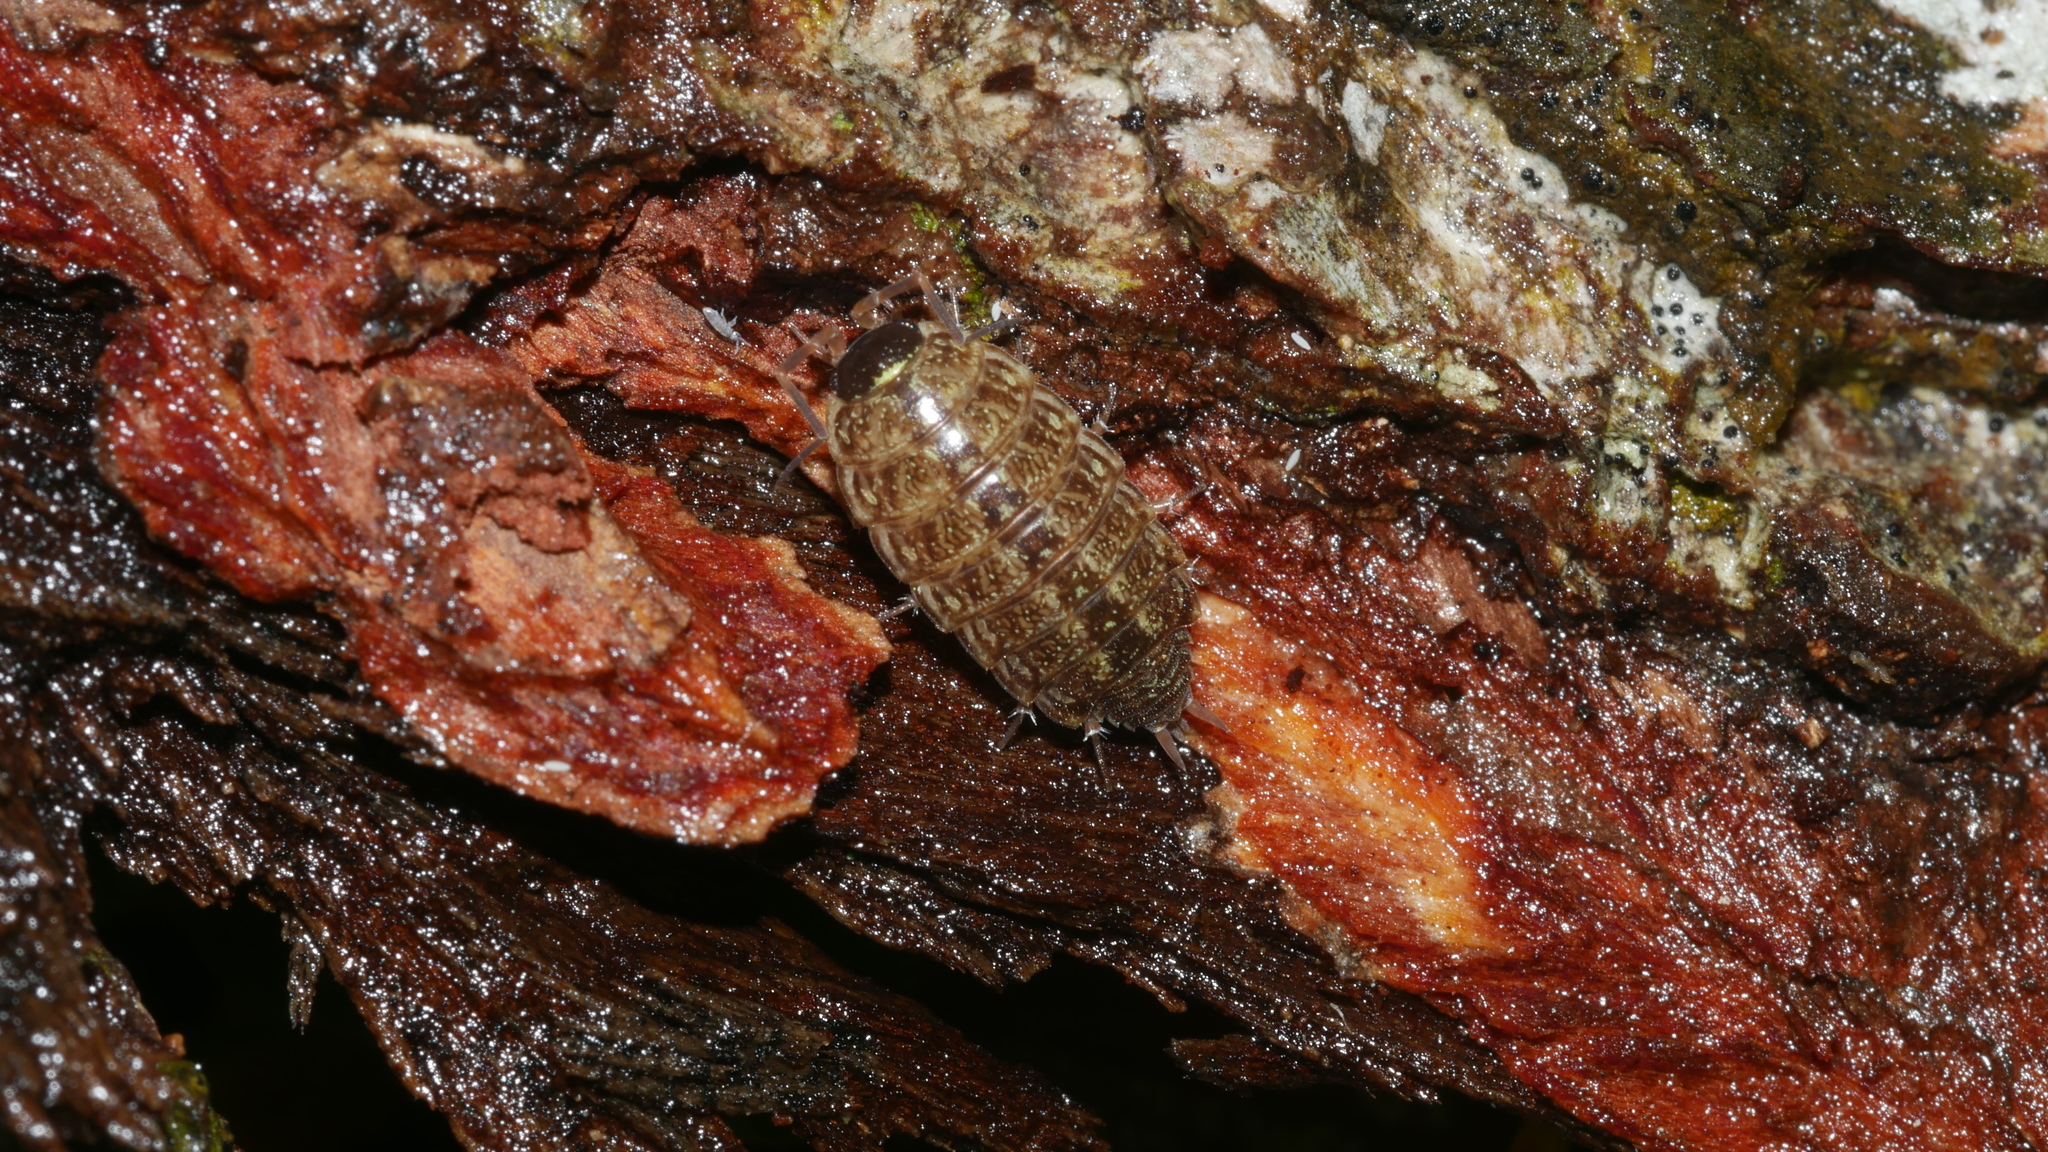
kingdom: Animalia
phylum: Arthropoda
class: Malacostraca
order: Isopoda
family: Philosciidae
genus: Philoscia
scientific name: Philoscia muscorum
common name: Common striped woodlouse
